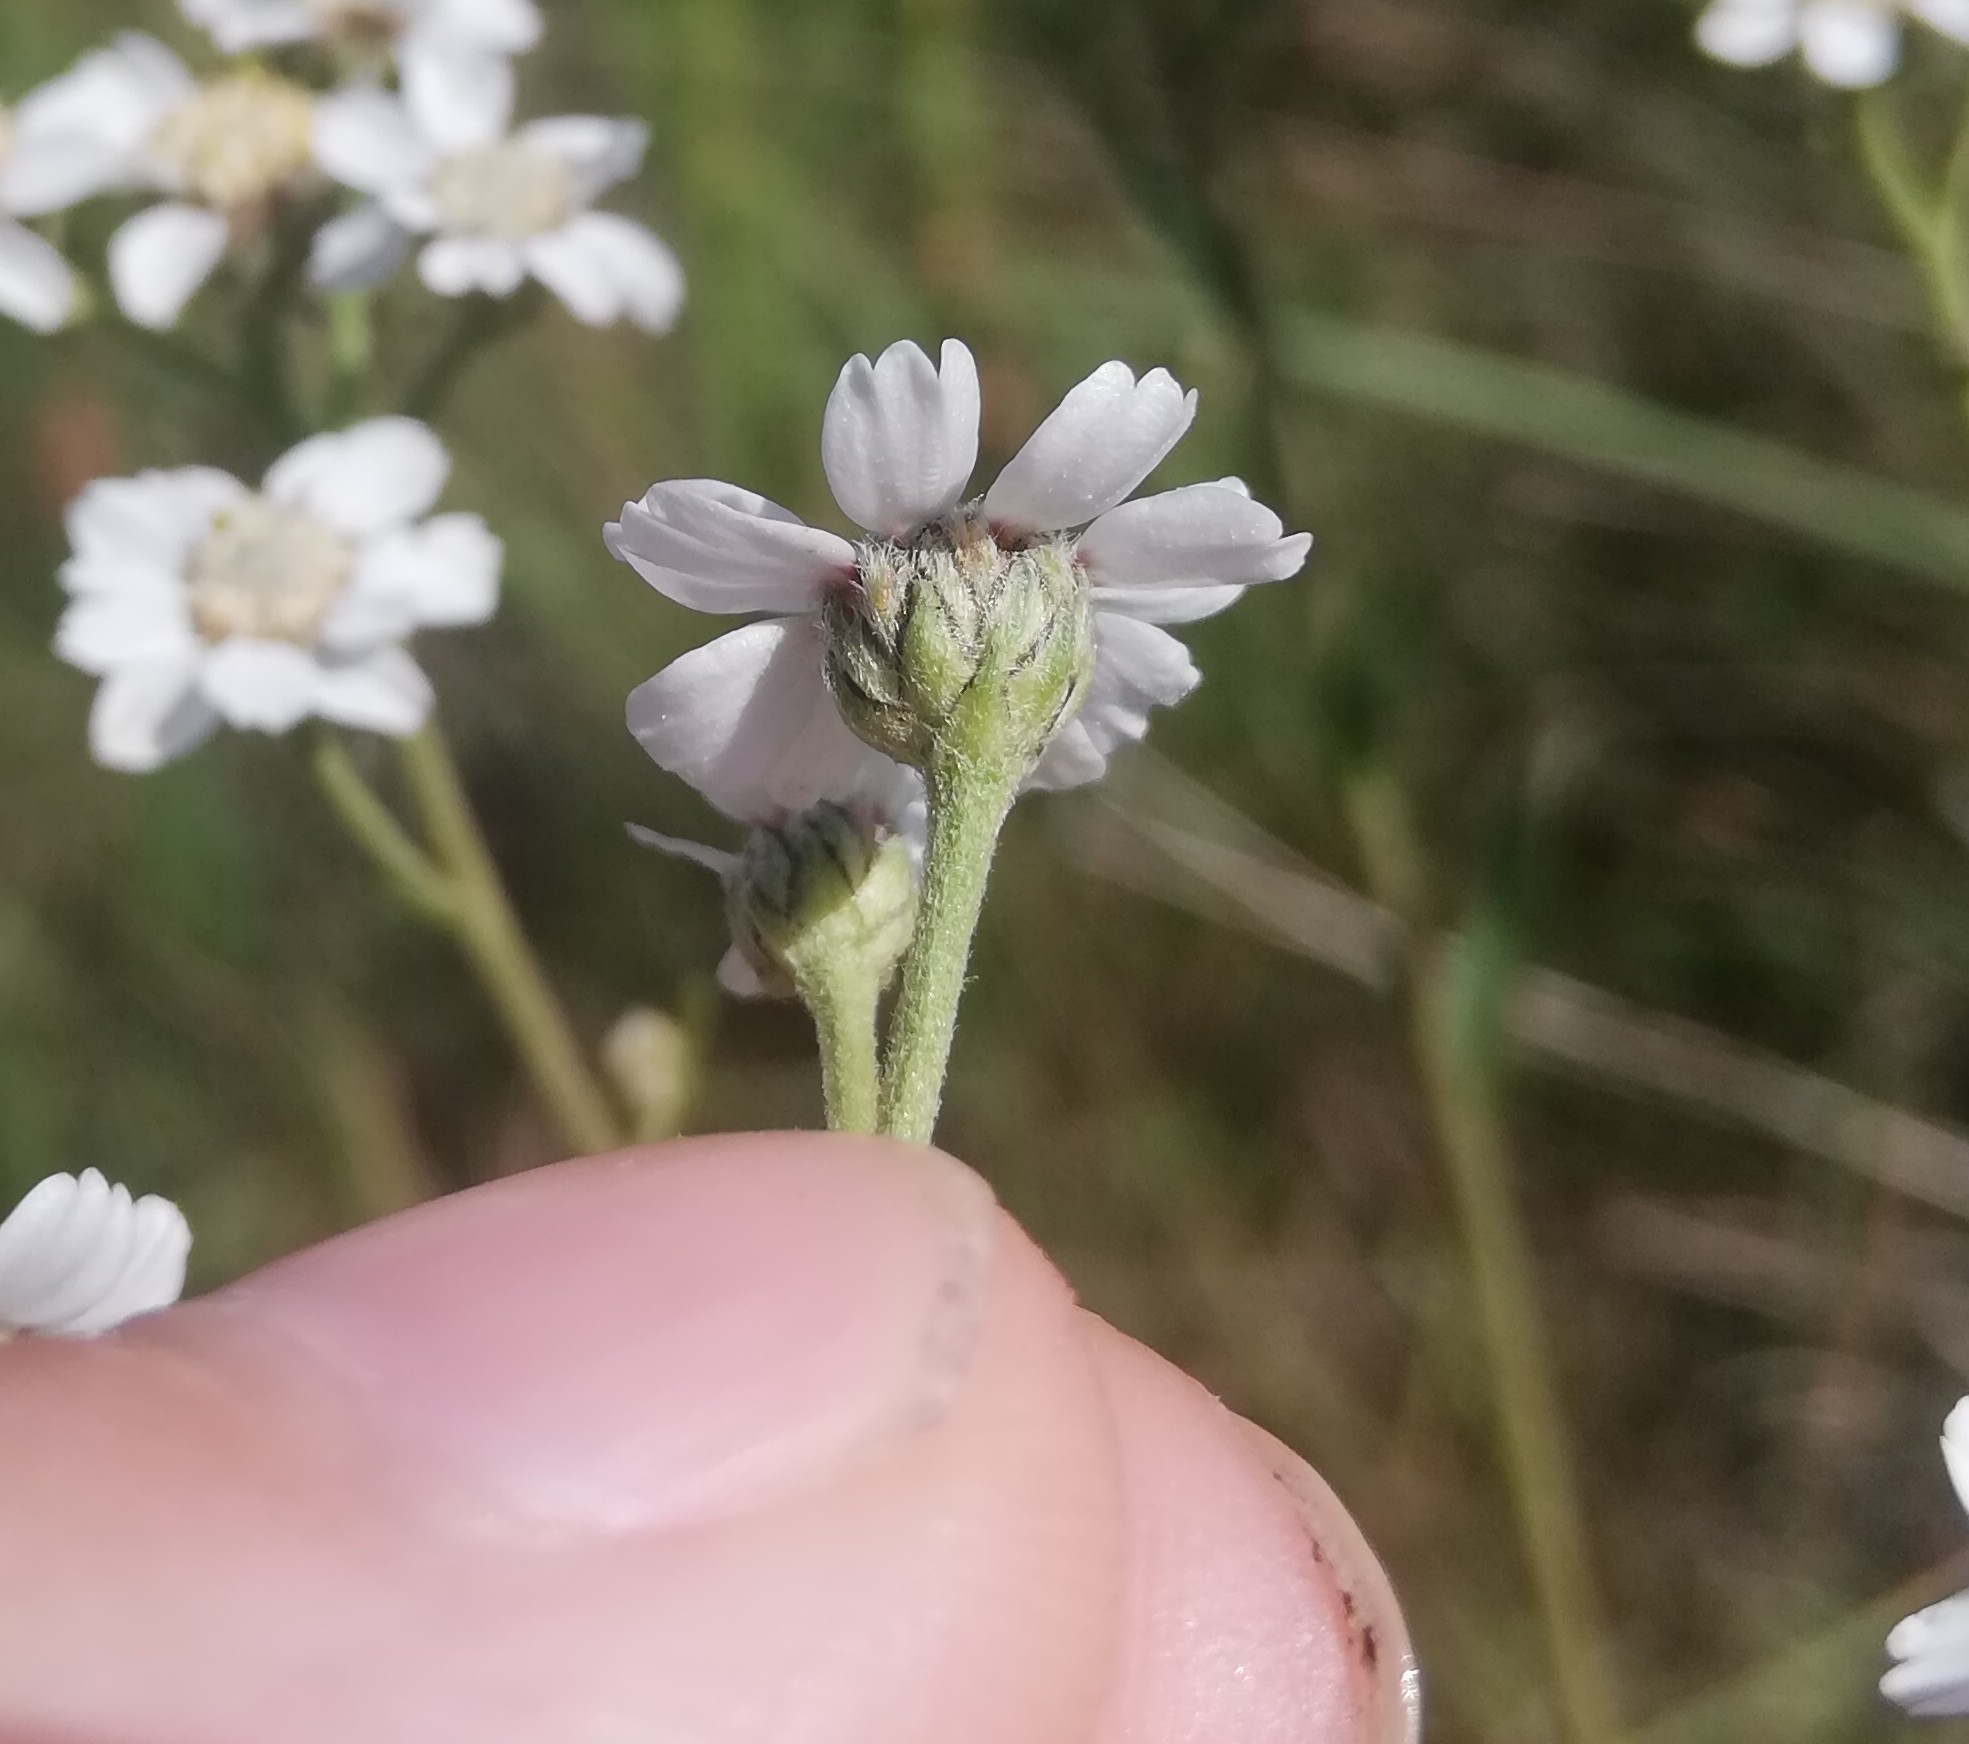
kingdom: Plantae
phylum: Tracheophyta
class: Magnoliopsida
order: Asterales
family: Asteraceae
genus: Achillea
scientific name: Achillea ptarmica
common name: Sneezeweed
